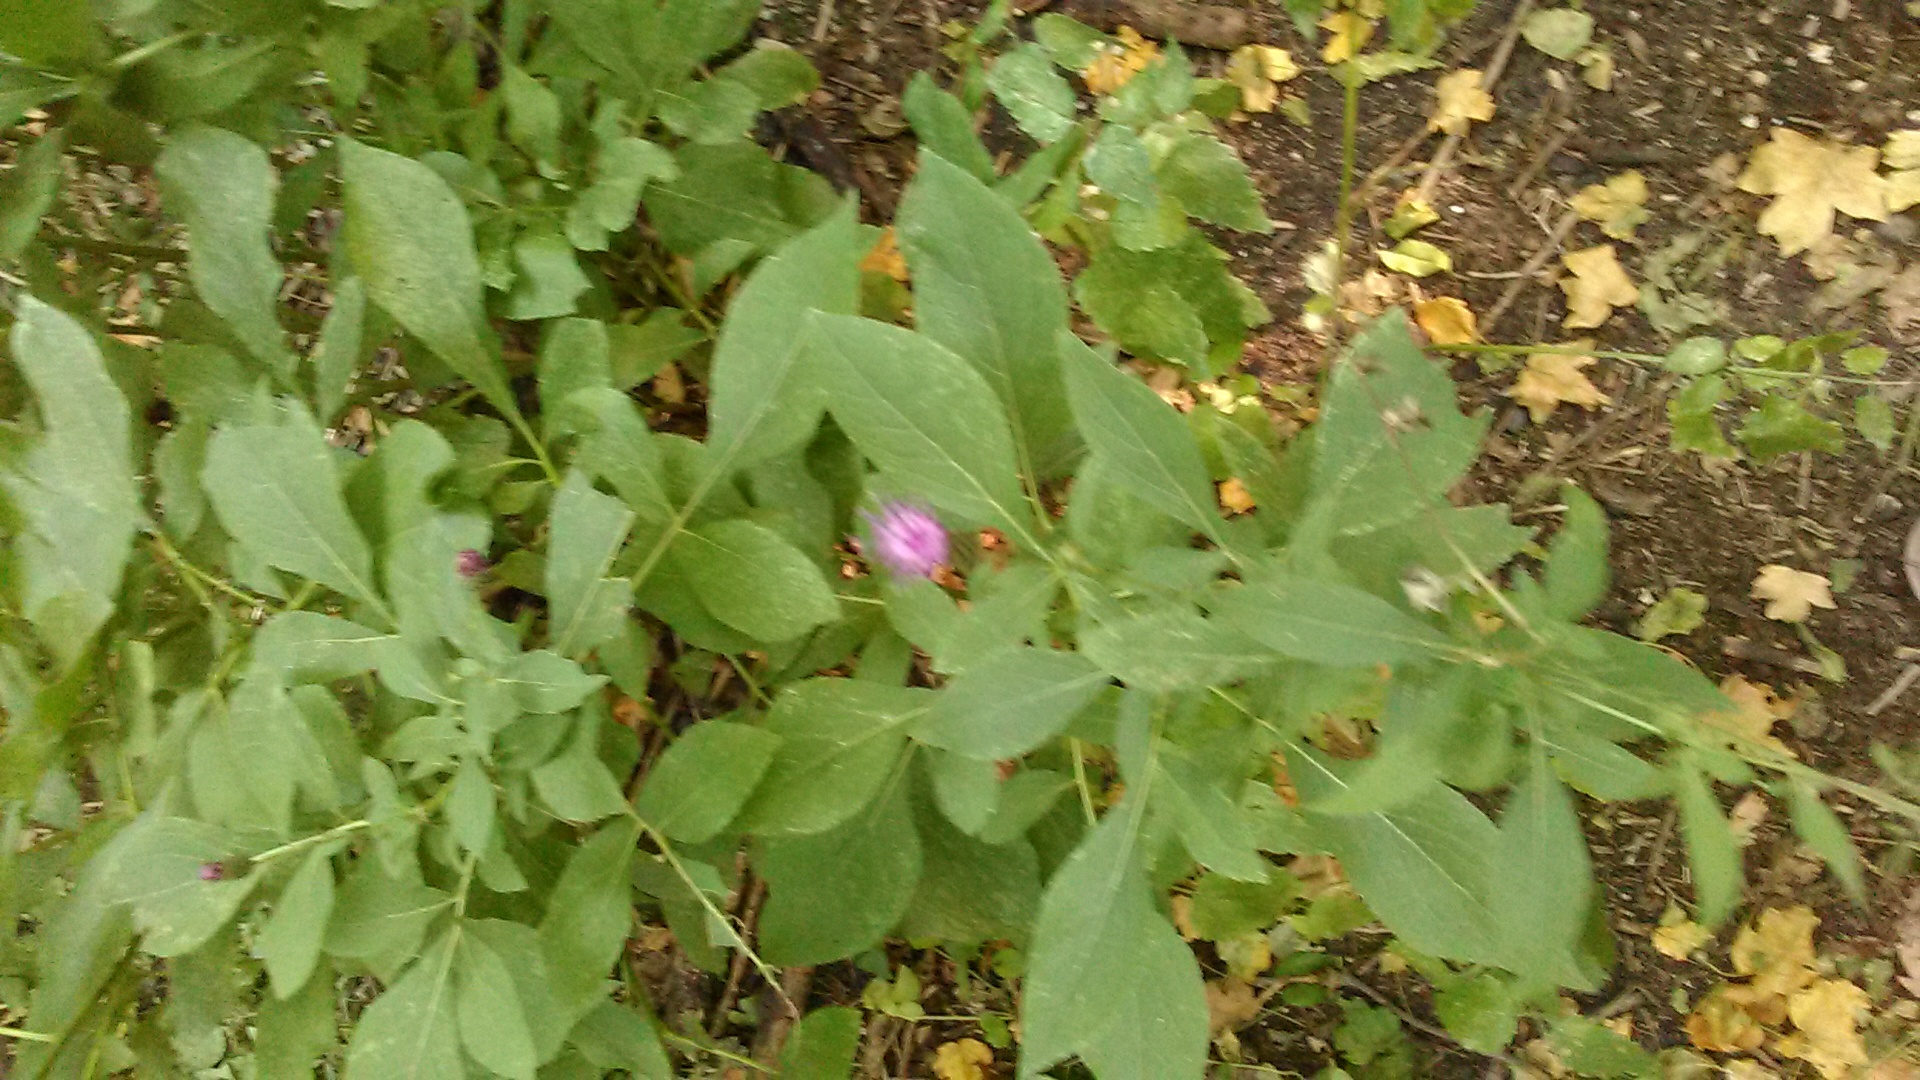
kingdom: Plantae
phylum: Tracheophyta
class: Magnoliopsida
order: Asterales
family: Asteraceae
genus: Klasea
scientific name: Klasea quinquefolia
